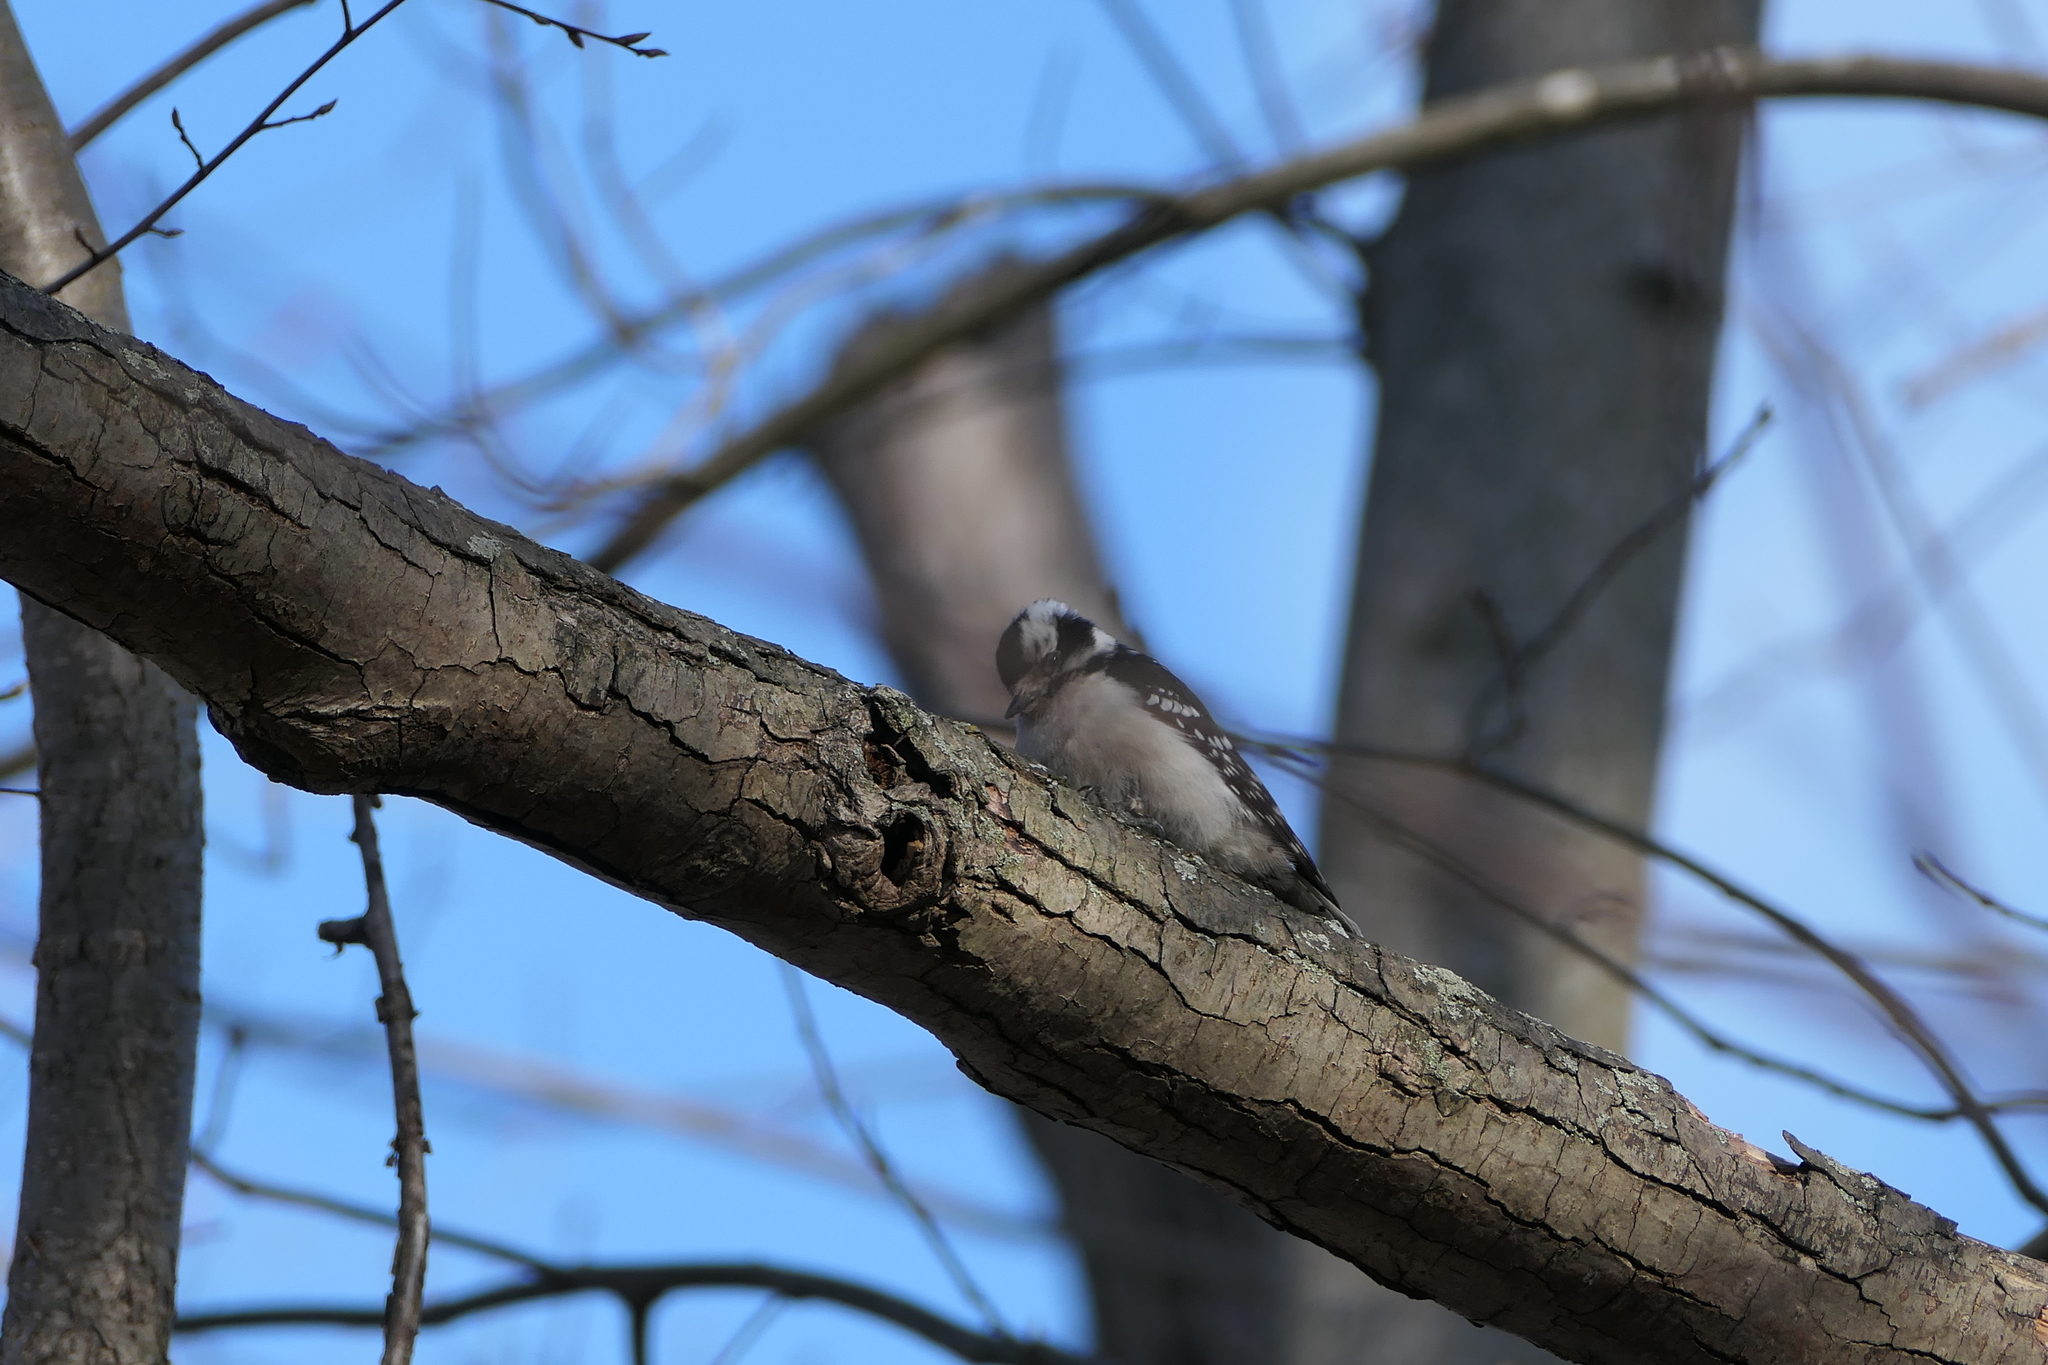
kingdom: Animalia
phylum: Chordata
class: Aves
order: Piciformes
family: Picidae
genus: Dryobates
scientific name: Dryobates pubescens
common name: Downy woodpecker
